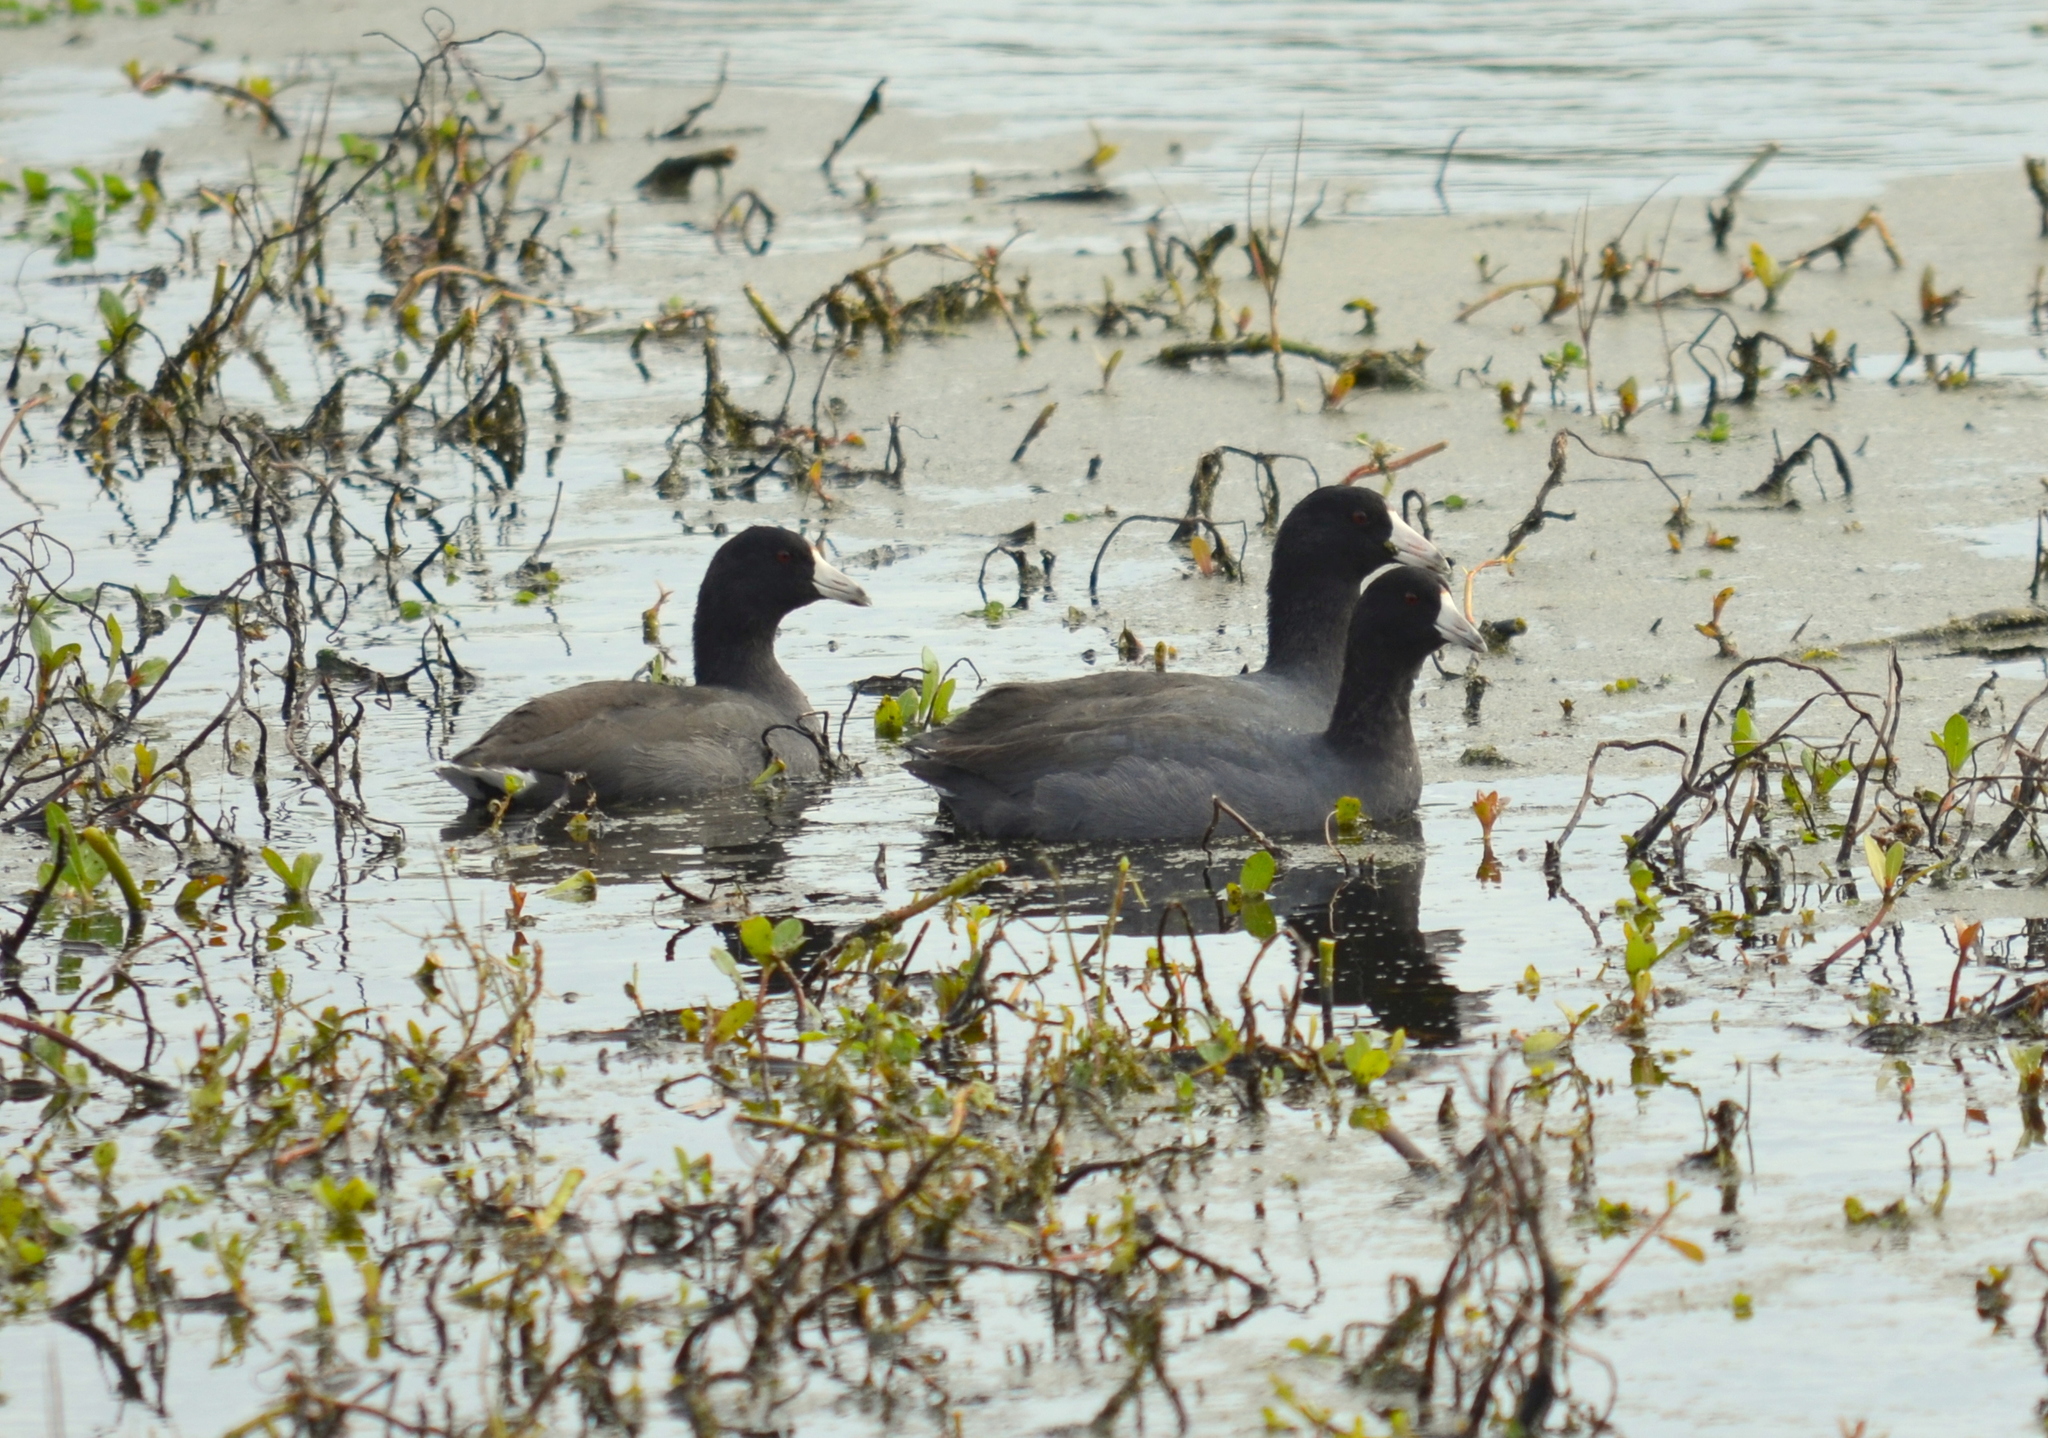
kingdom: Animalia
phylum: Chordata
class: Aves
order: Gruiformes
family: Rallidae
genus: Fulica
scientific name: Fulica americana
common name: American coot
